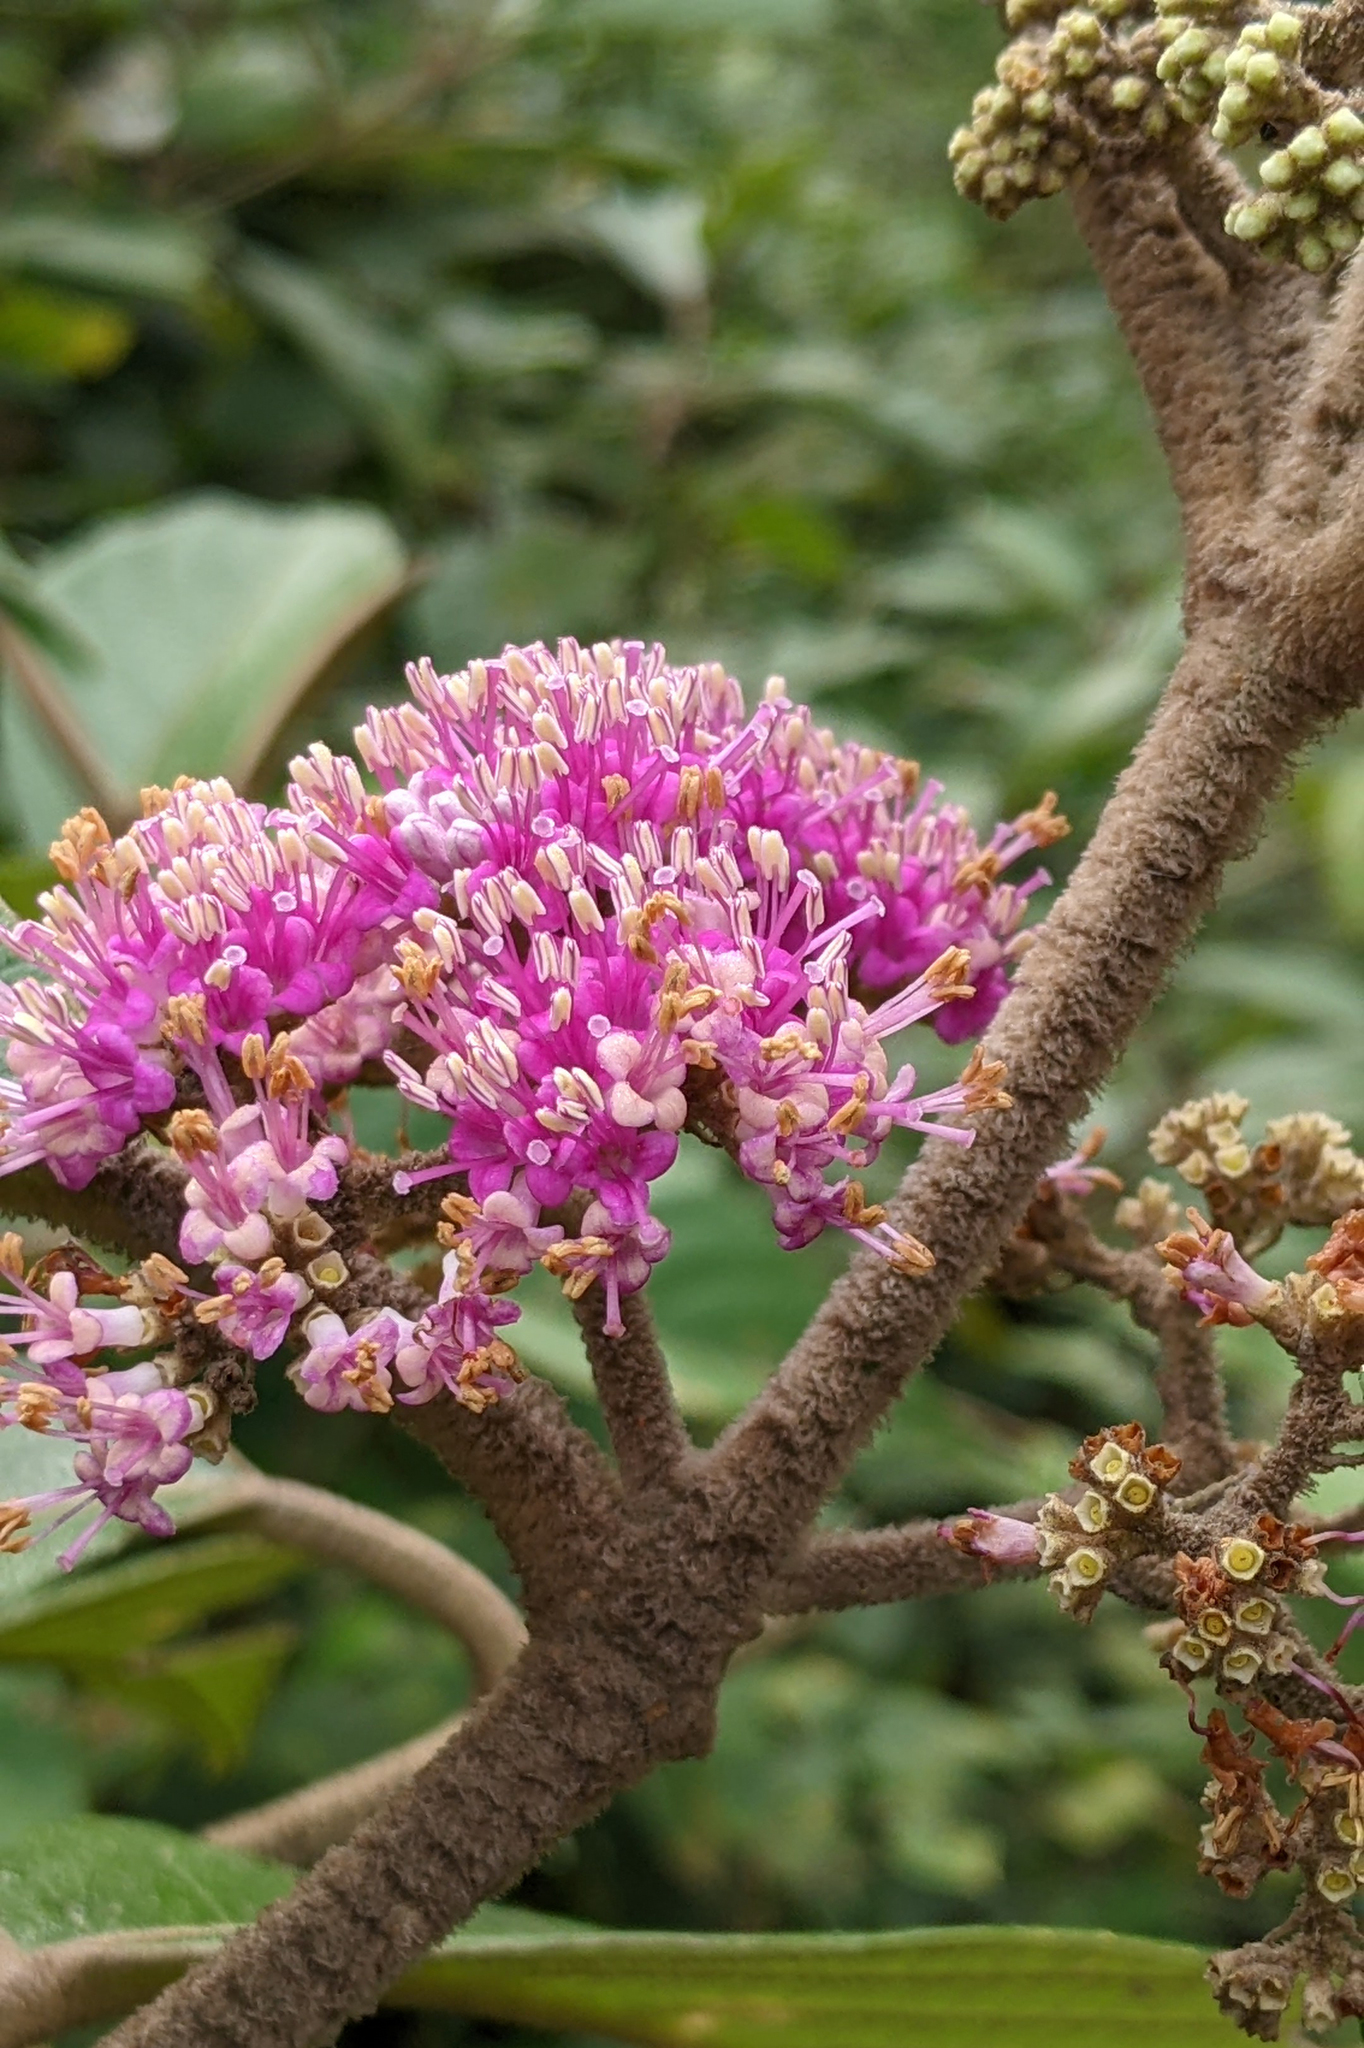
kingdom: Plantae
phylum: Tracheophyta
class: Magnoliopsida
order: Lamiales
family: Lamiaceae
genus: Callicarpa
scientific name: Callicarpa tomentosa
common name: Great woolly malayan-lilac
